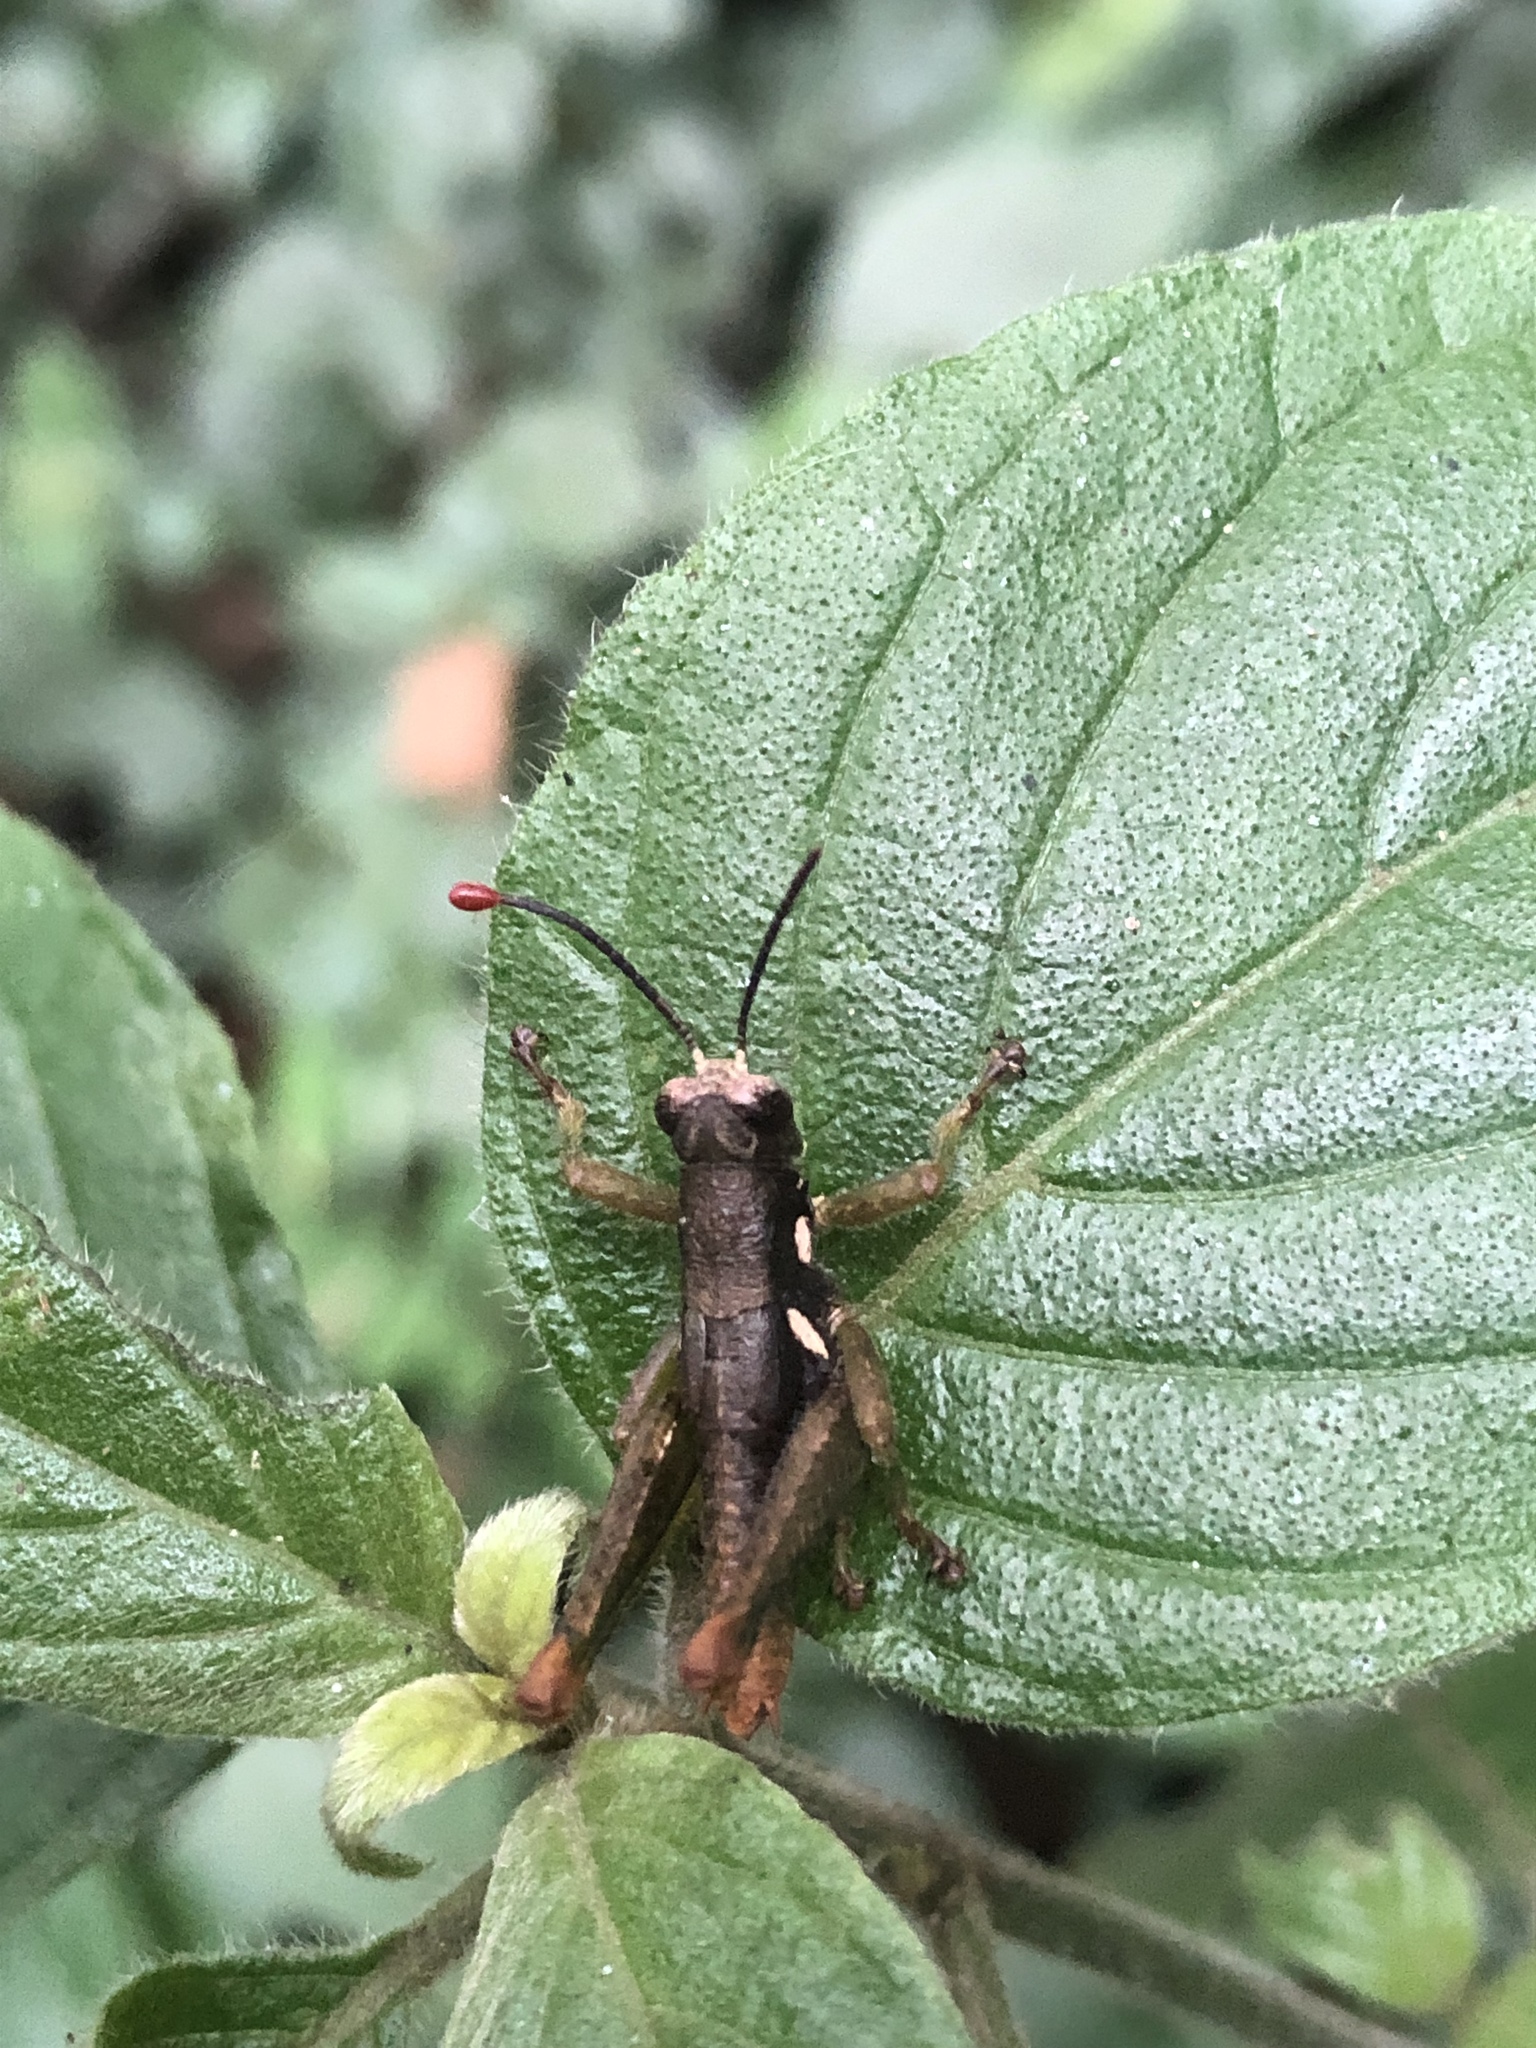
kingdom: Animalia
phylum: Arthropoda
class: Insecta
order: Orthoptera
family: Acrididae
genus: Duviardia
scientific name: Duviardia vansomereni
